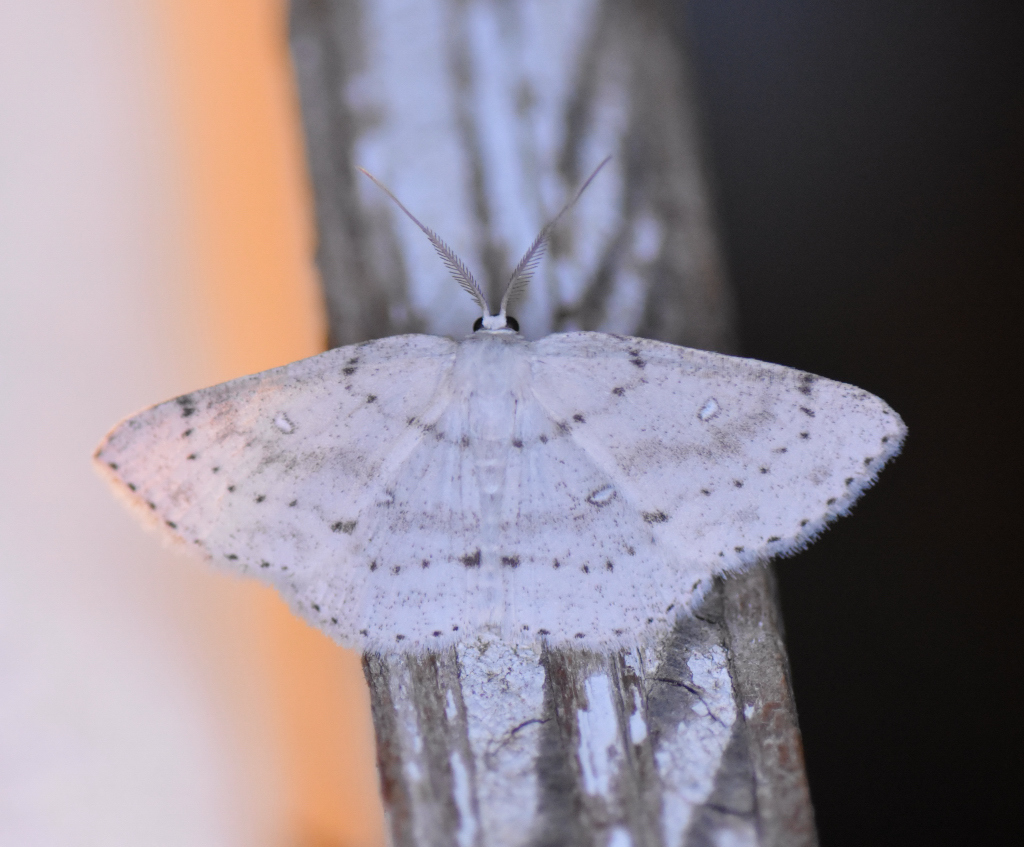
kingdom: Animalia
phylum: Arthropoda
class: Insecta
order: Lepidoptera
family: Geometridae
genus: Cyclophora
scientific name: Cyclophora pendulinaria
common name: Sweet fern geometer
